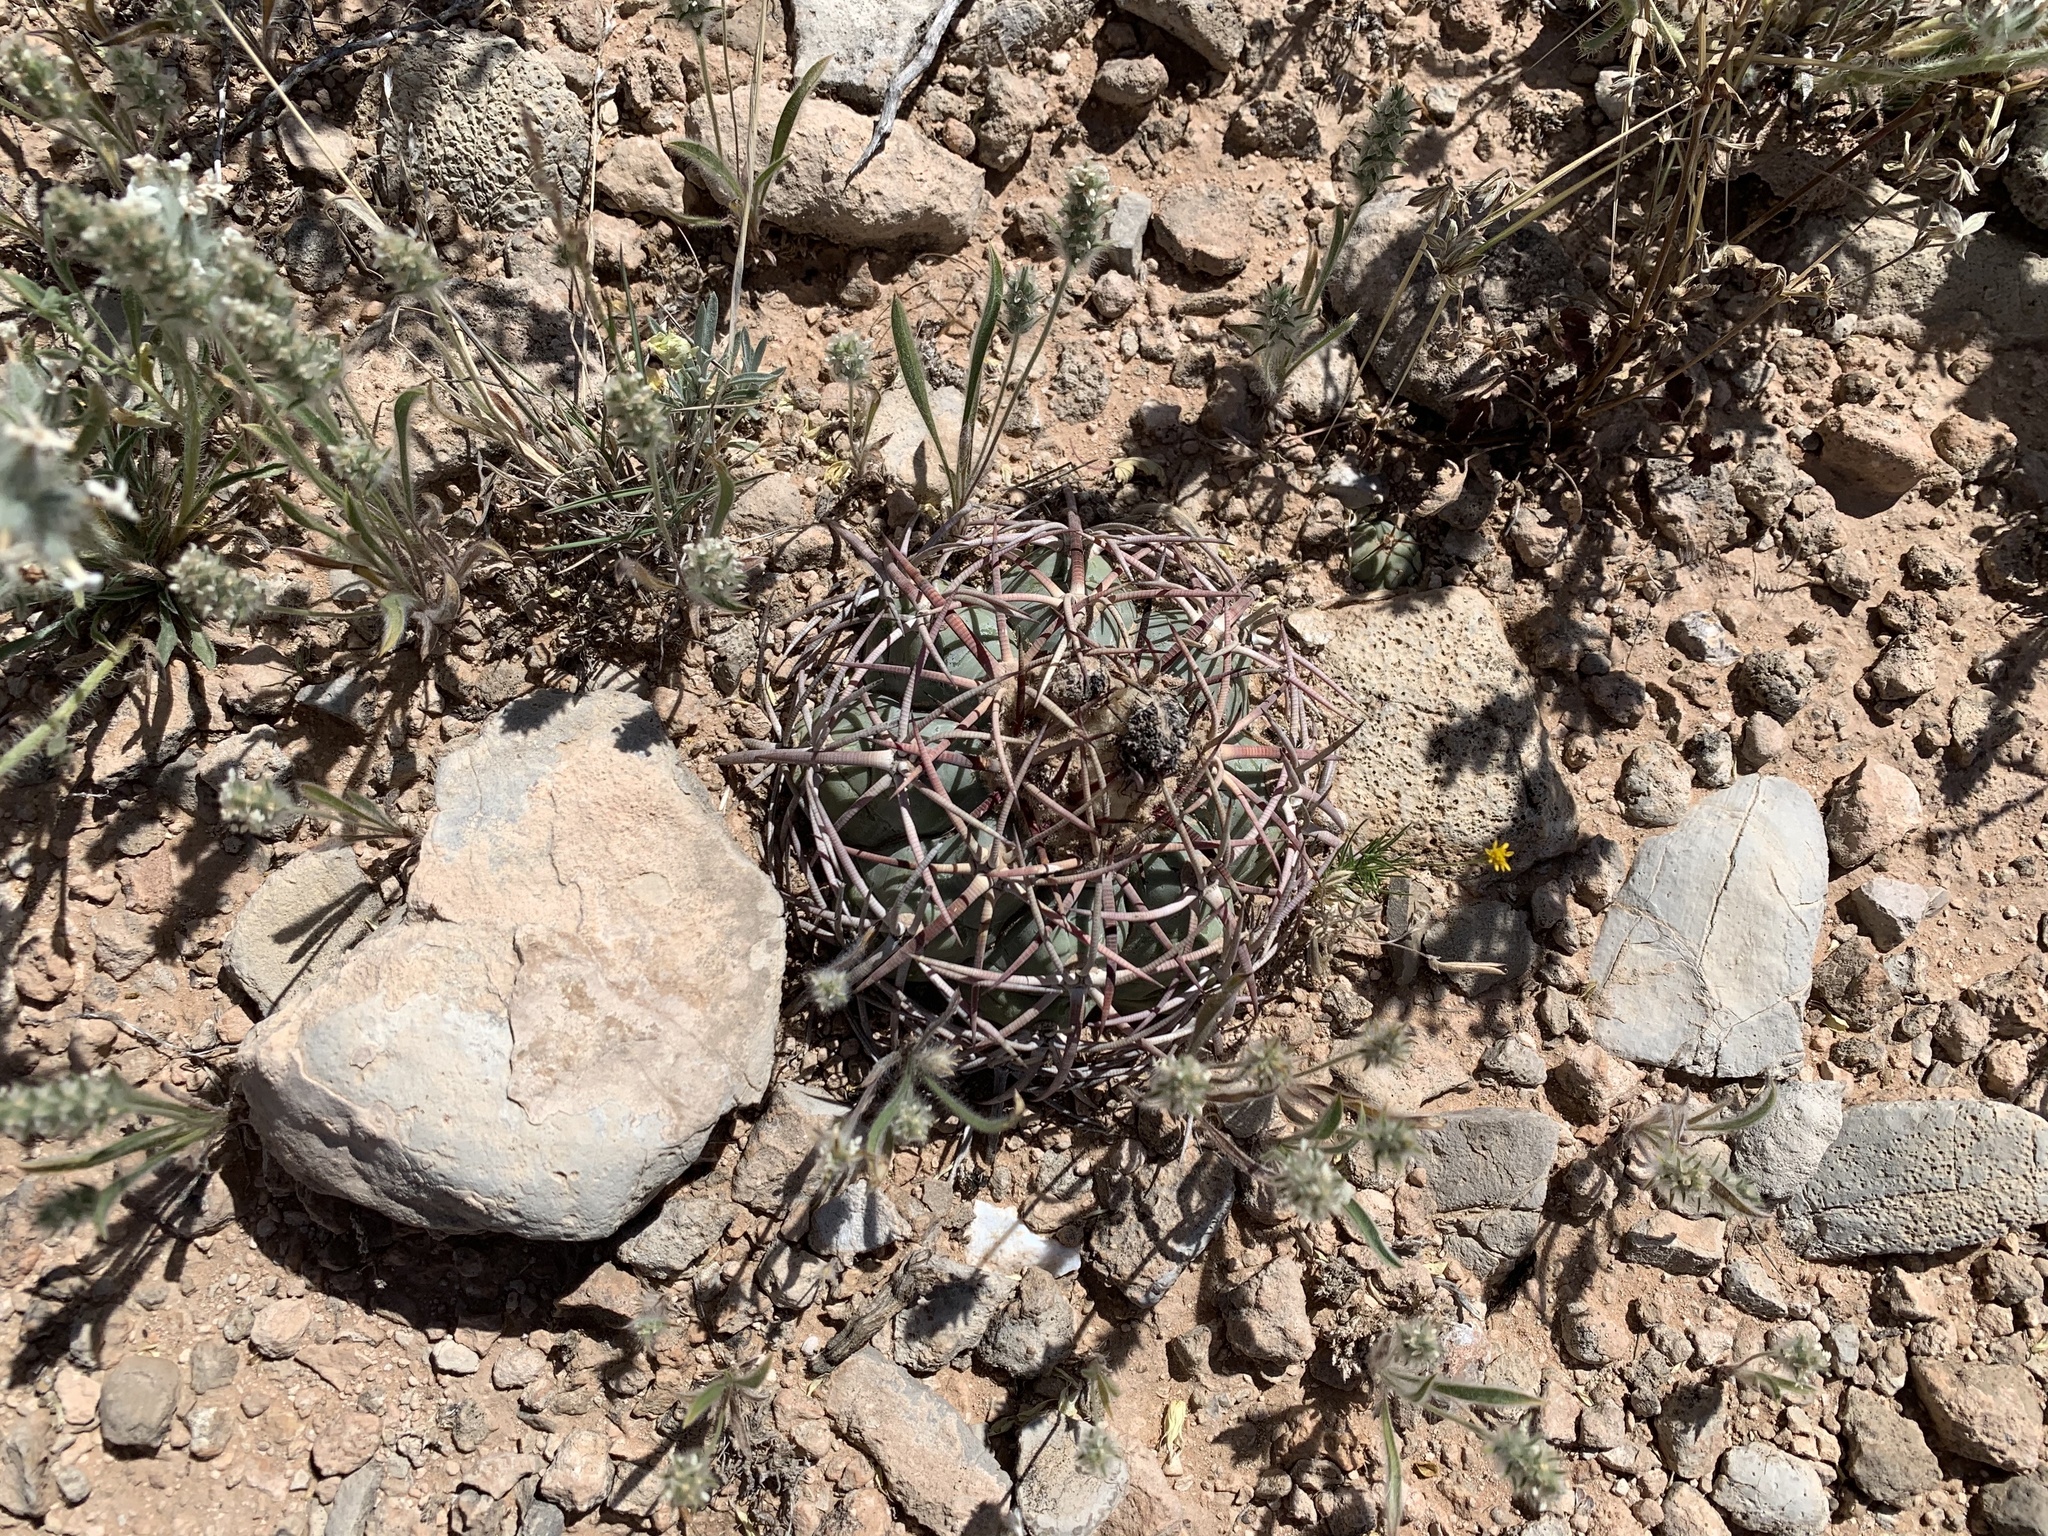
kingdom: Plantae
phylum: Tracheophyta
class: Magnoliopsida
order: Caryophyllales
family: Cactaceae
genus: Echinocactus
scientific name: Echinocactus horizonthalonius
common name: Devilshead
